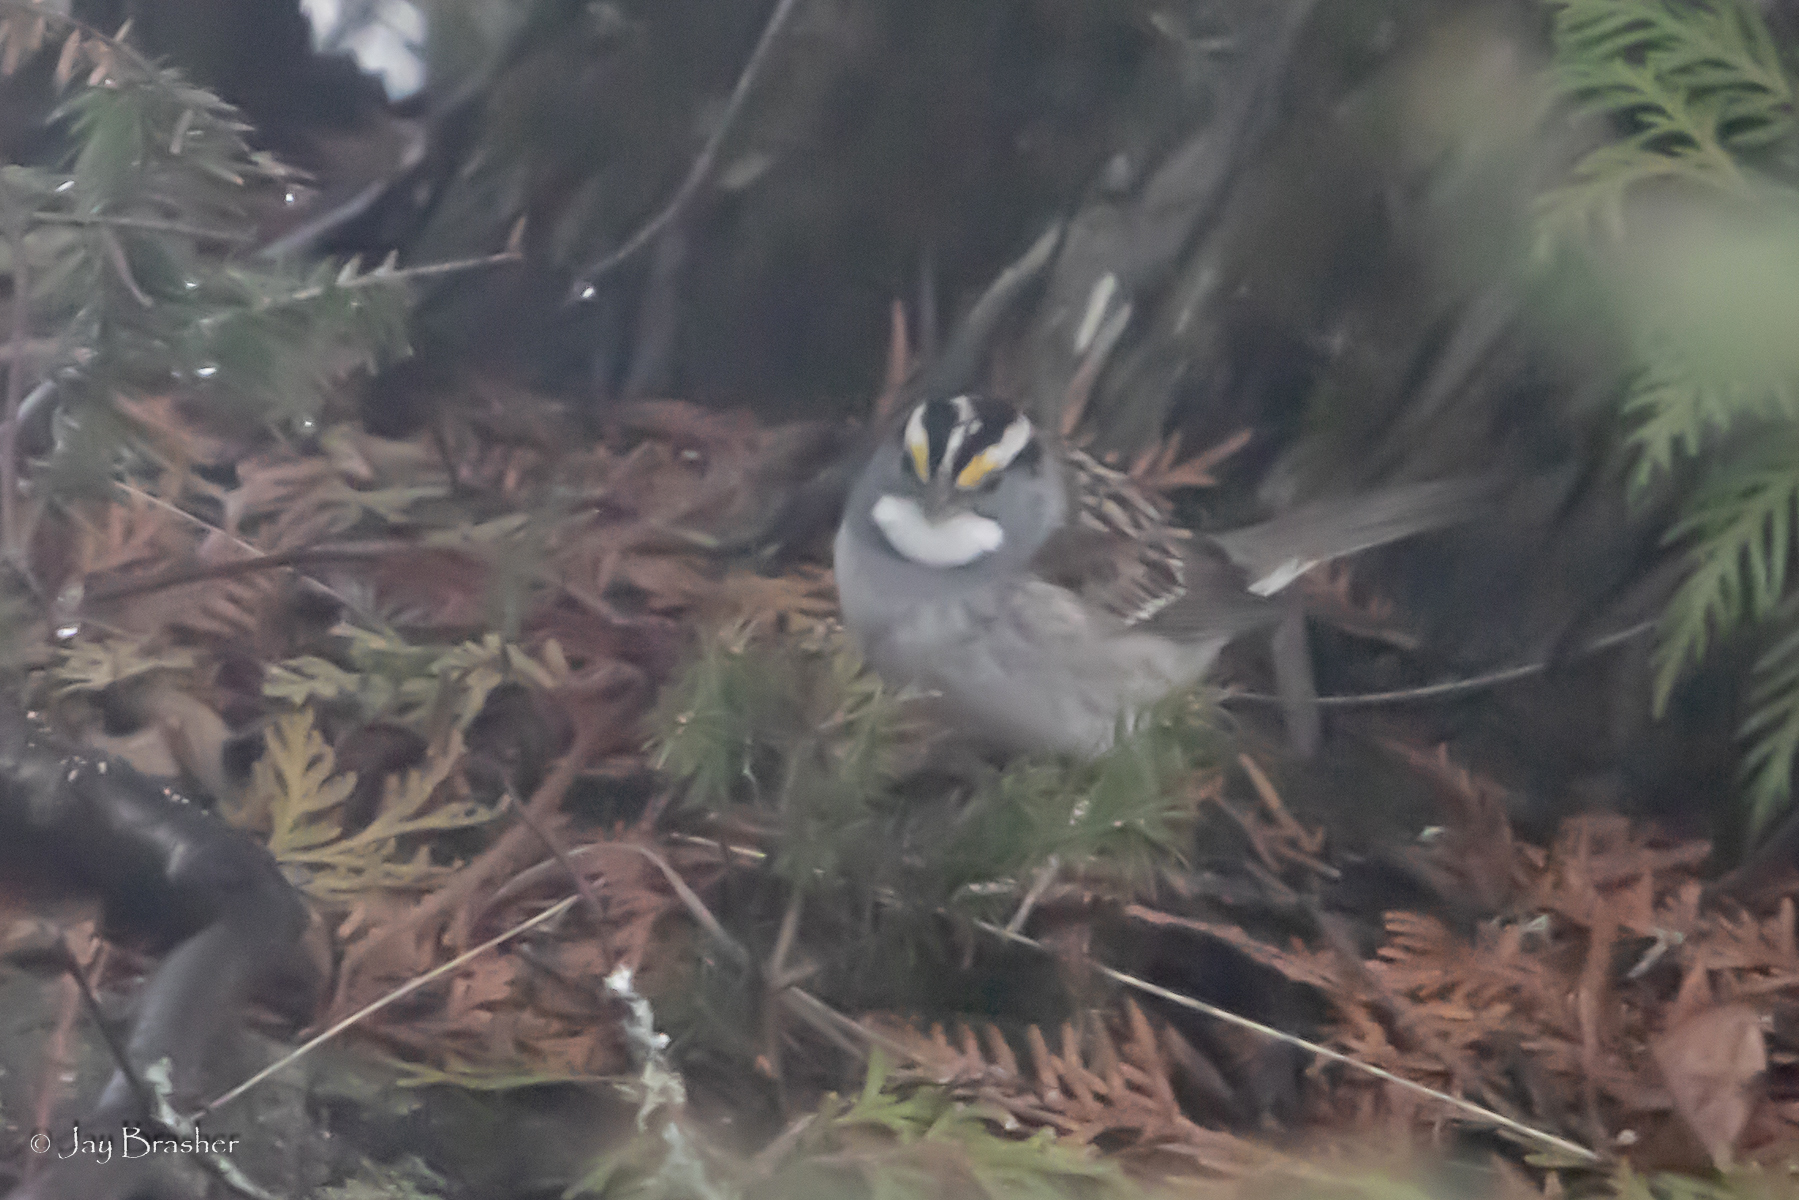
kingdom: Animalia
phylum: Chordata
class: Aves
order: Passeriformes
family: Passerellidae
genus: Zonotrichia
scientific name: Zonotrichia albicollis
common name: White-throated sparrow
